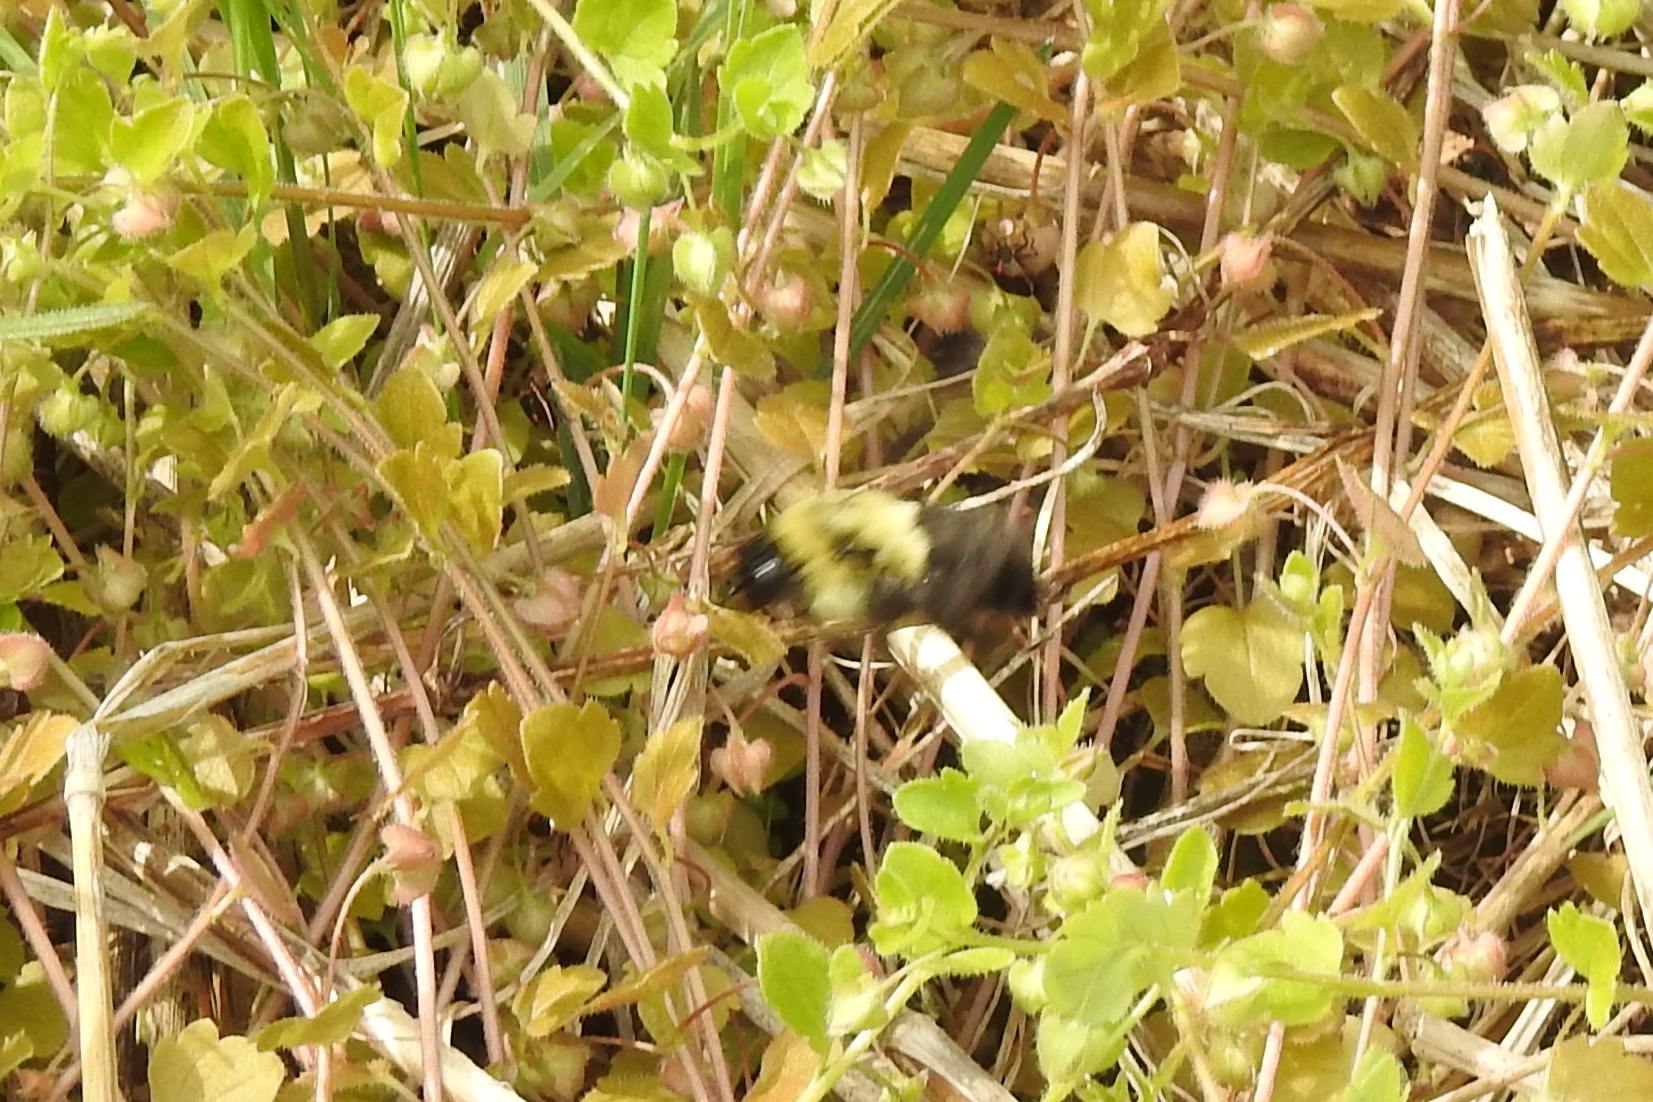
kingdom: Animalia
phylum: Arthropoda
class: Insecta
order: Hymenoptera
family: Apidae
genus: Bombus
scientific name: Bombus impatiens
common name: Common eastern bumble bee
